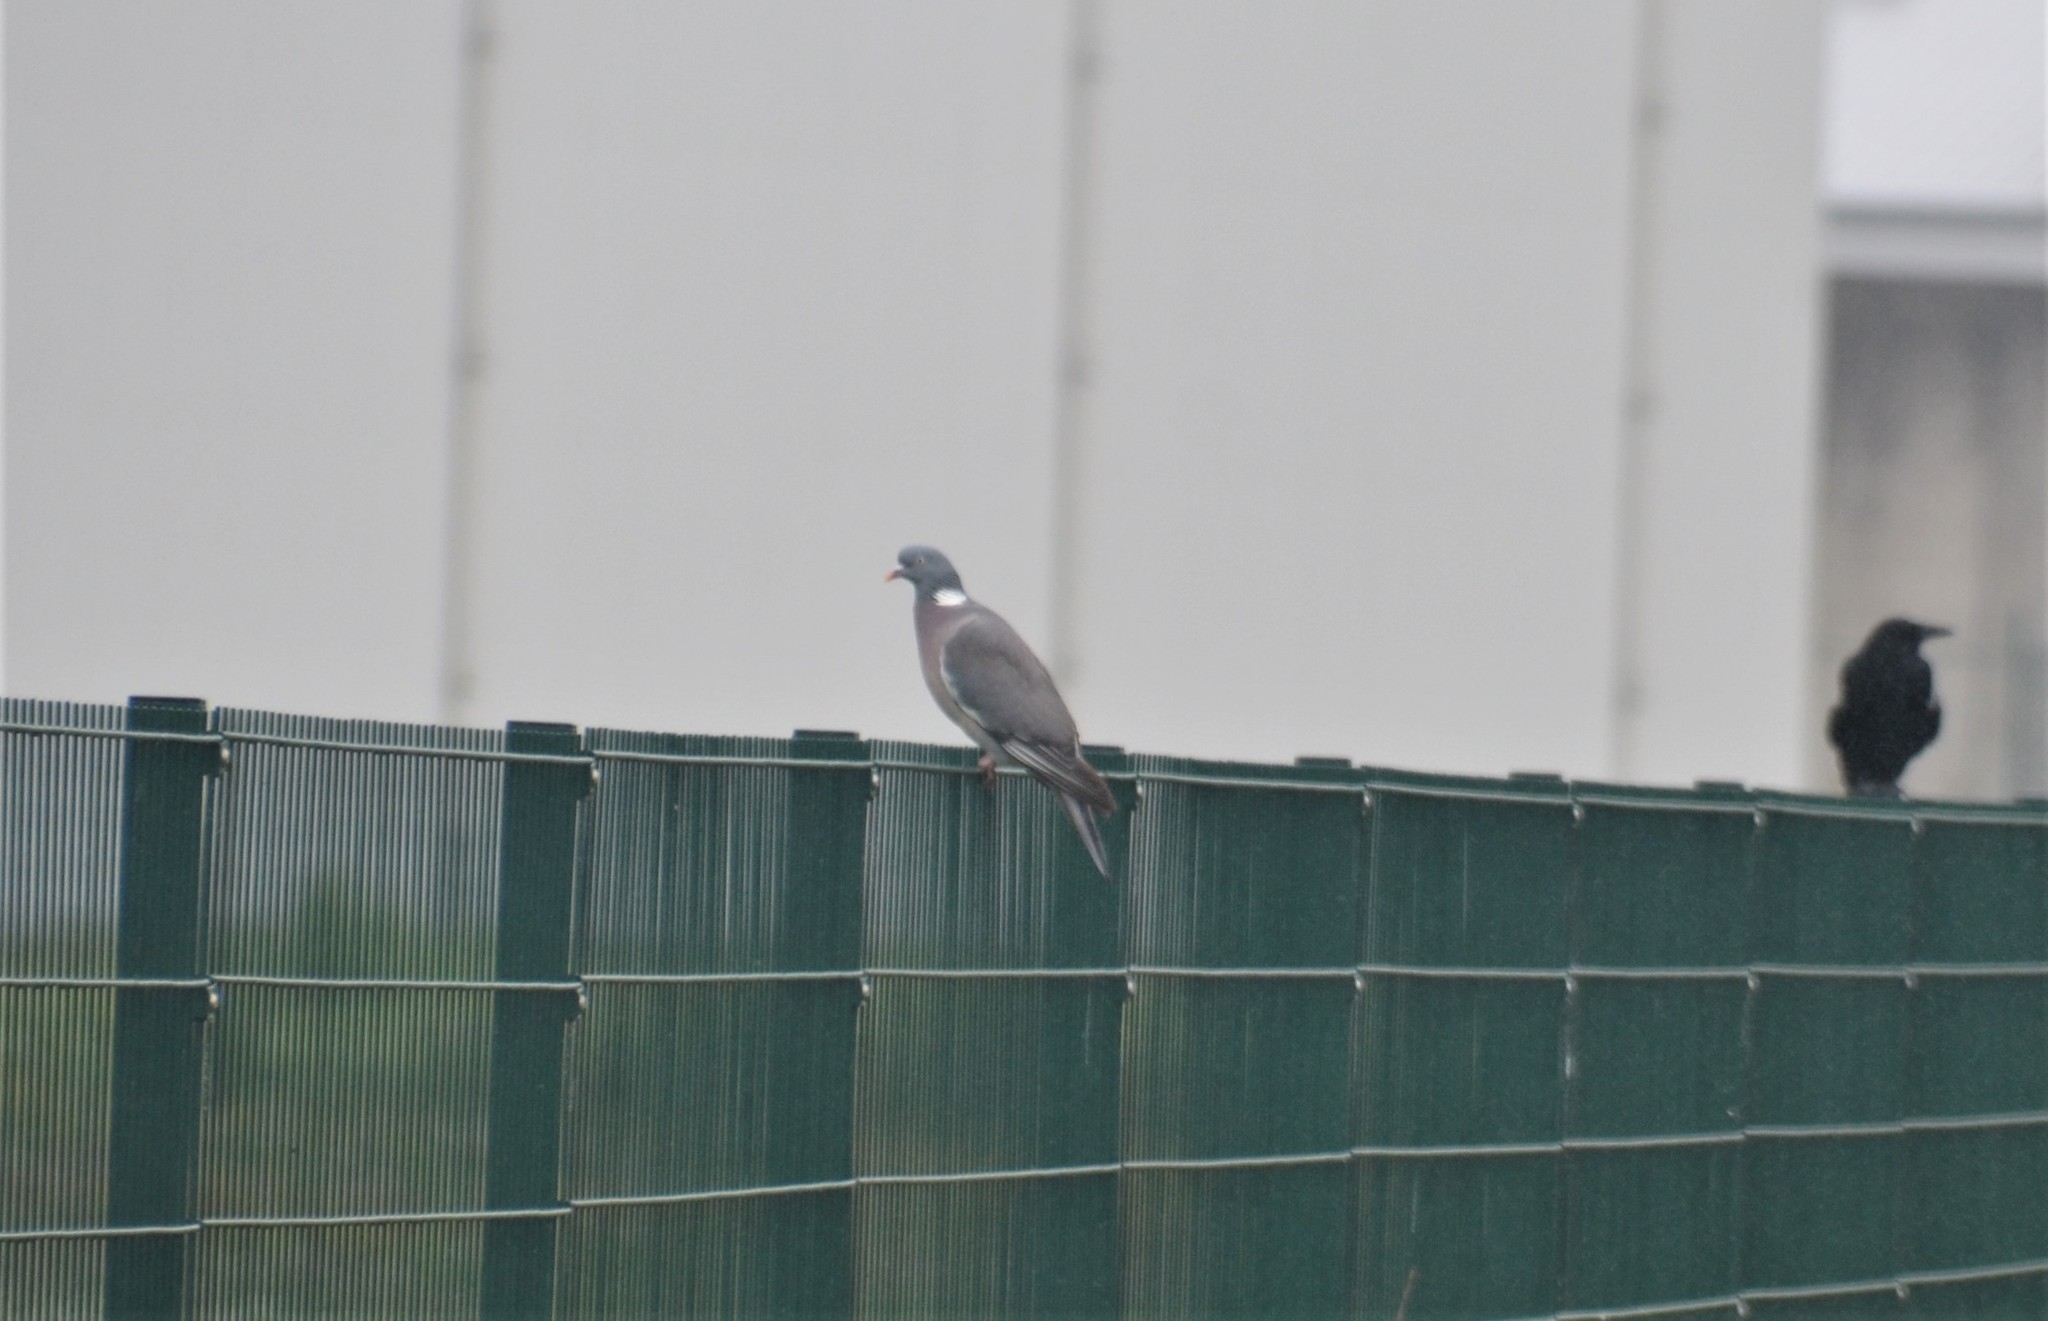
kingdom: Animalia
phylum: Chordata
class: Aves
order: Columbiformes
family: Columbidae
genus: Columba
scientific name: Columba palumbus
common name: Common wood pigeon
